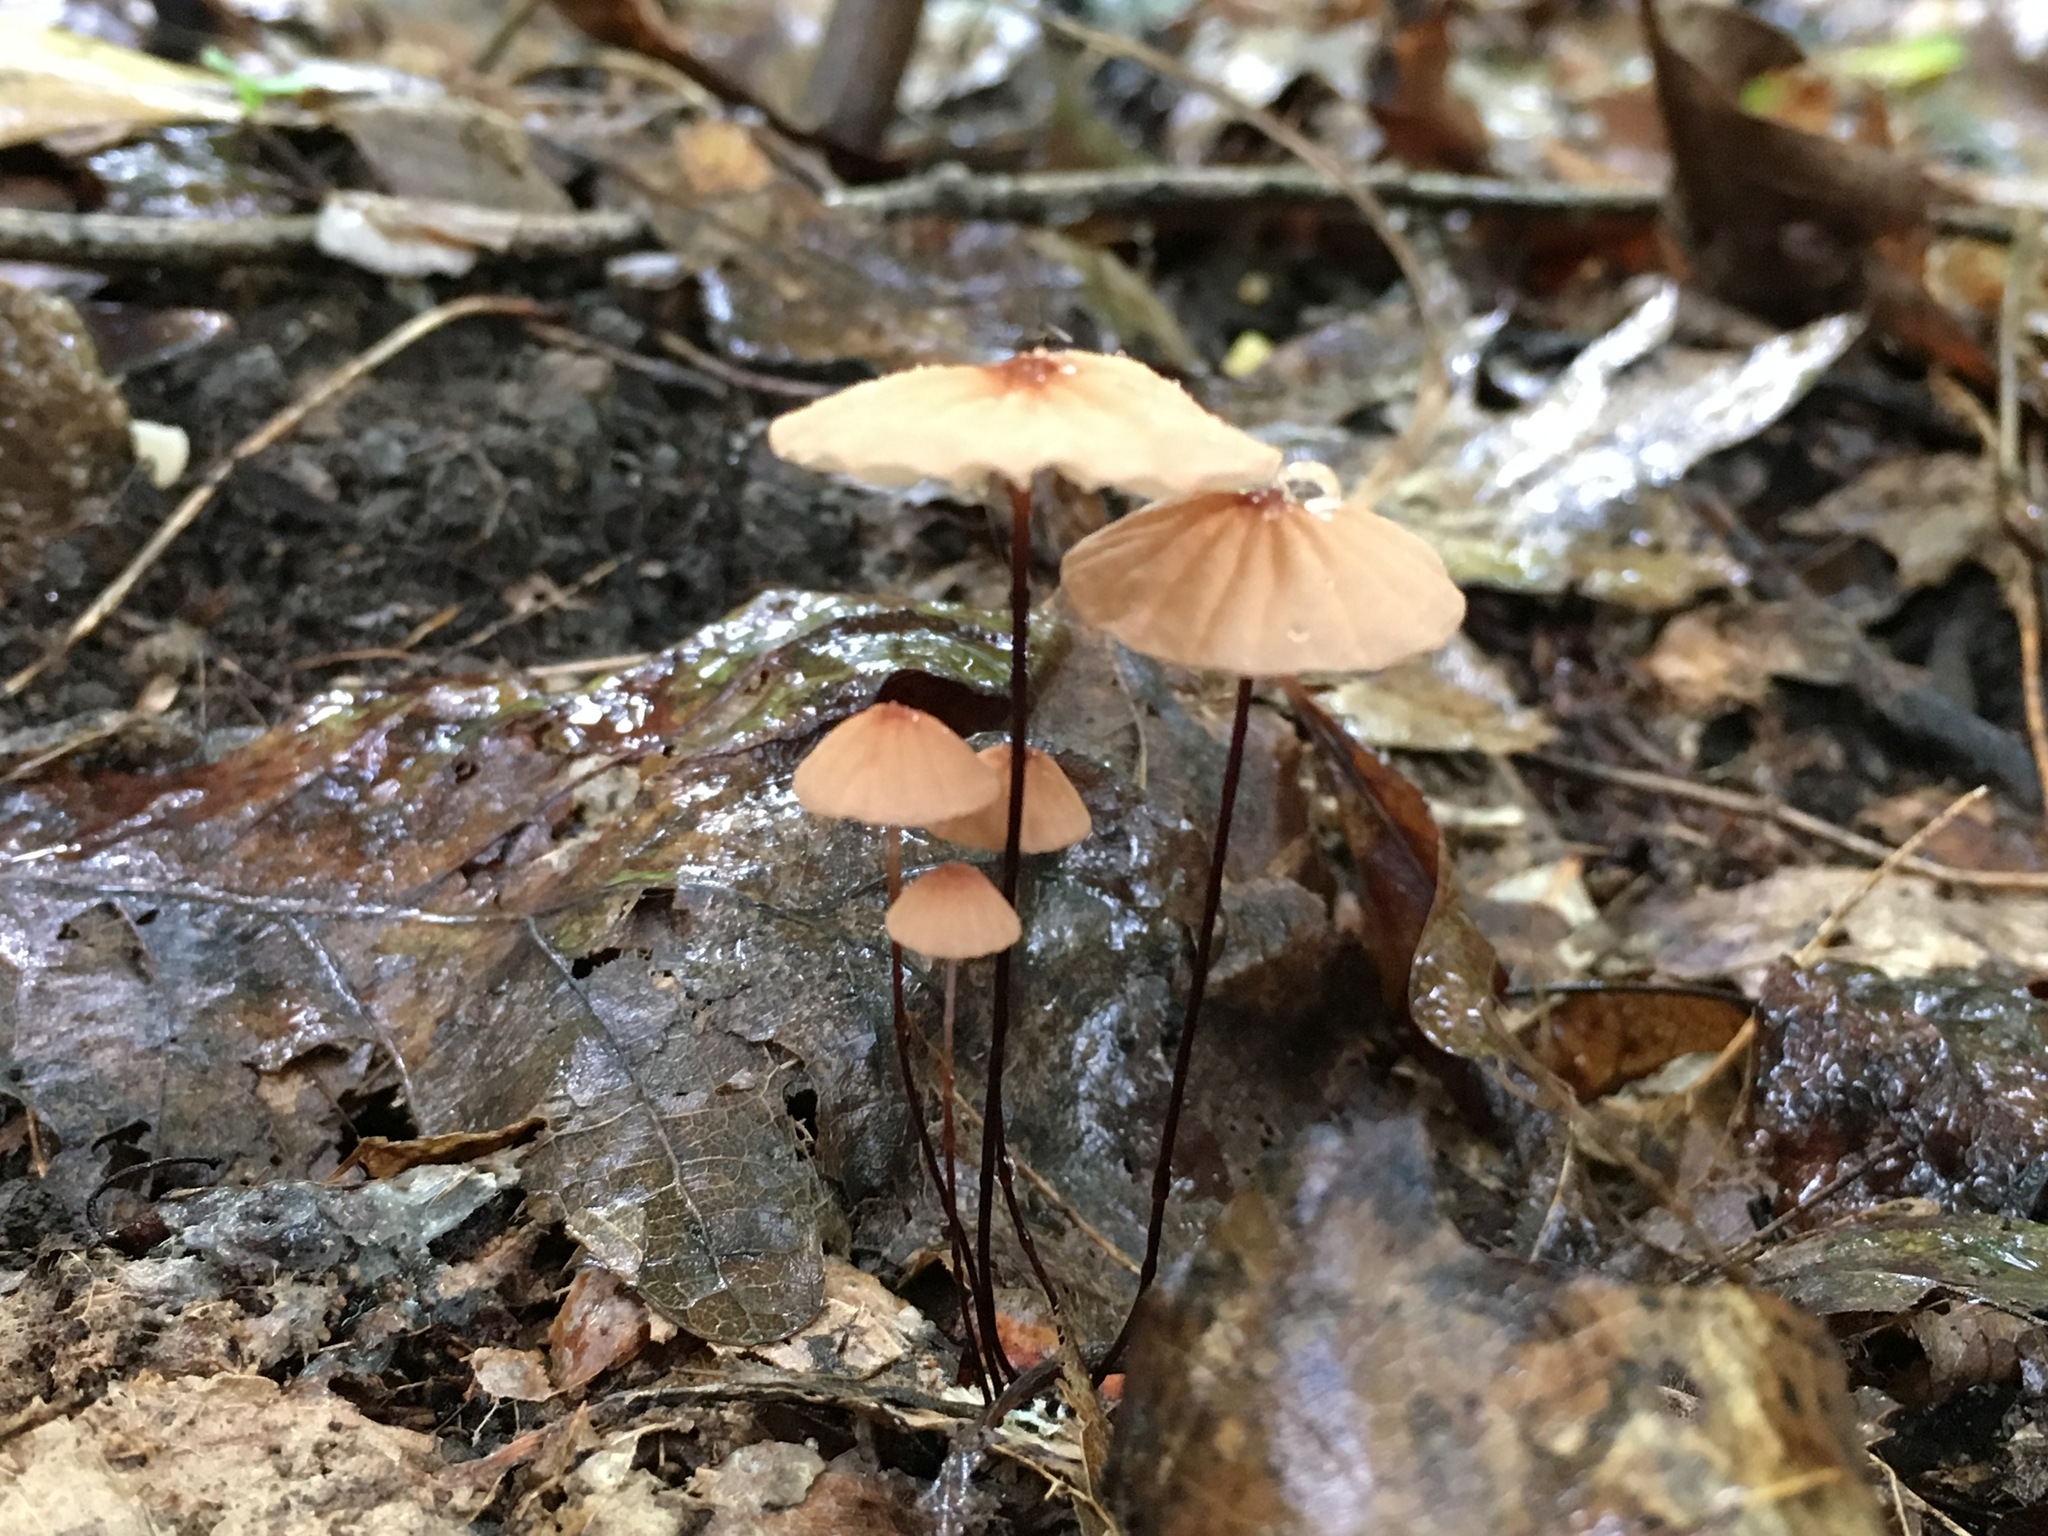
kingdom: Fungi
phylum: Basidiomycota
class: Agaricomycetes
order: Agaricales
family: Marasmiaceae
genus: Marasmius
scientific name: Marasmius siccus
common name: Orange pinwheel
